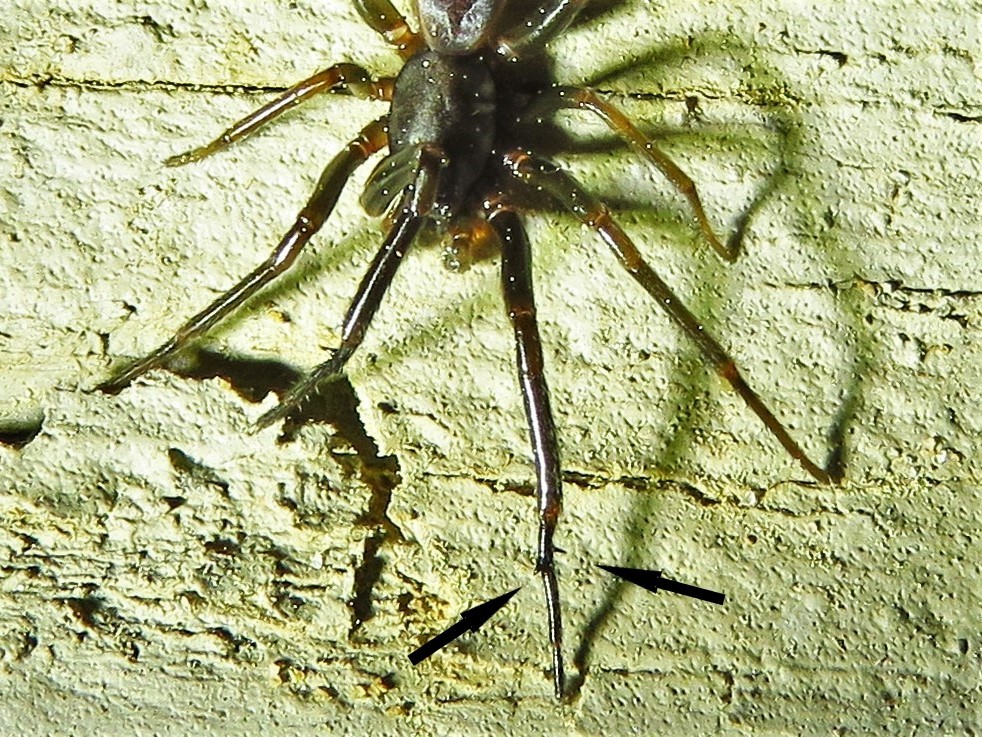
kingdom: Animalia
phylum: Arthropoda
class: Arachnida
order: Araneae
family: Segestriidae
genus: Ariadna
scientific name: Ariadna bicolor
